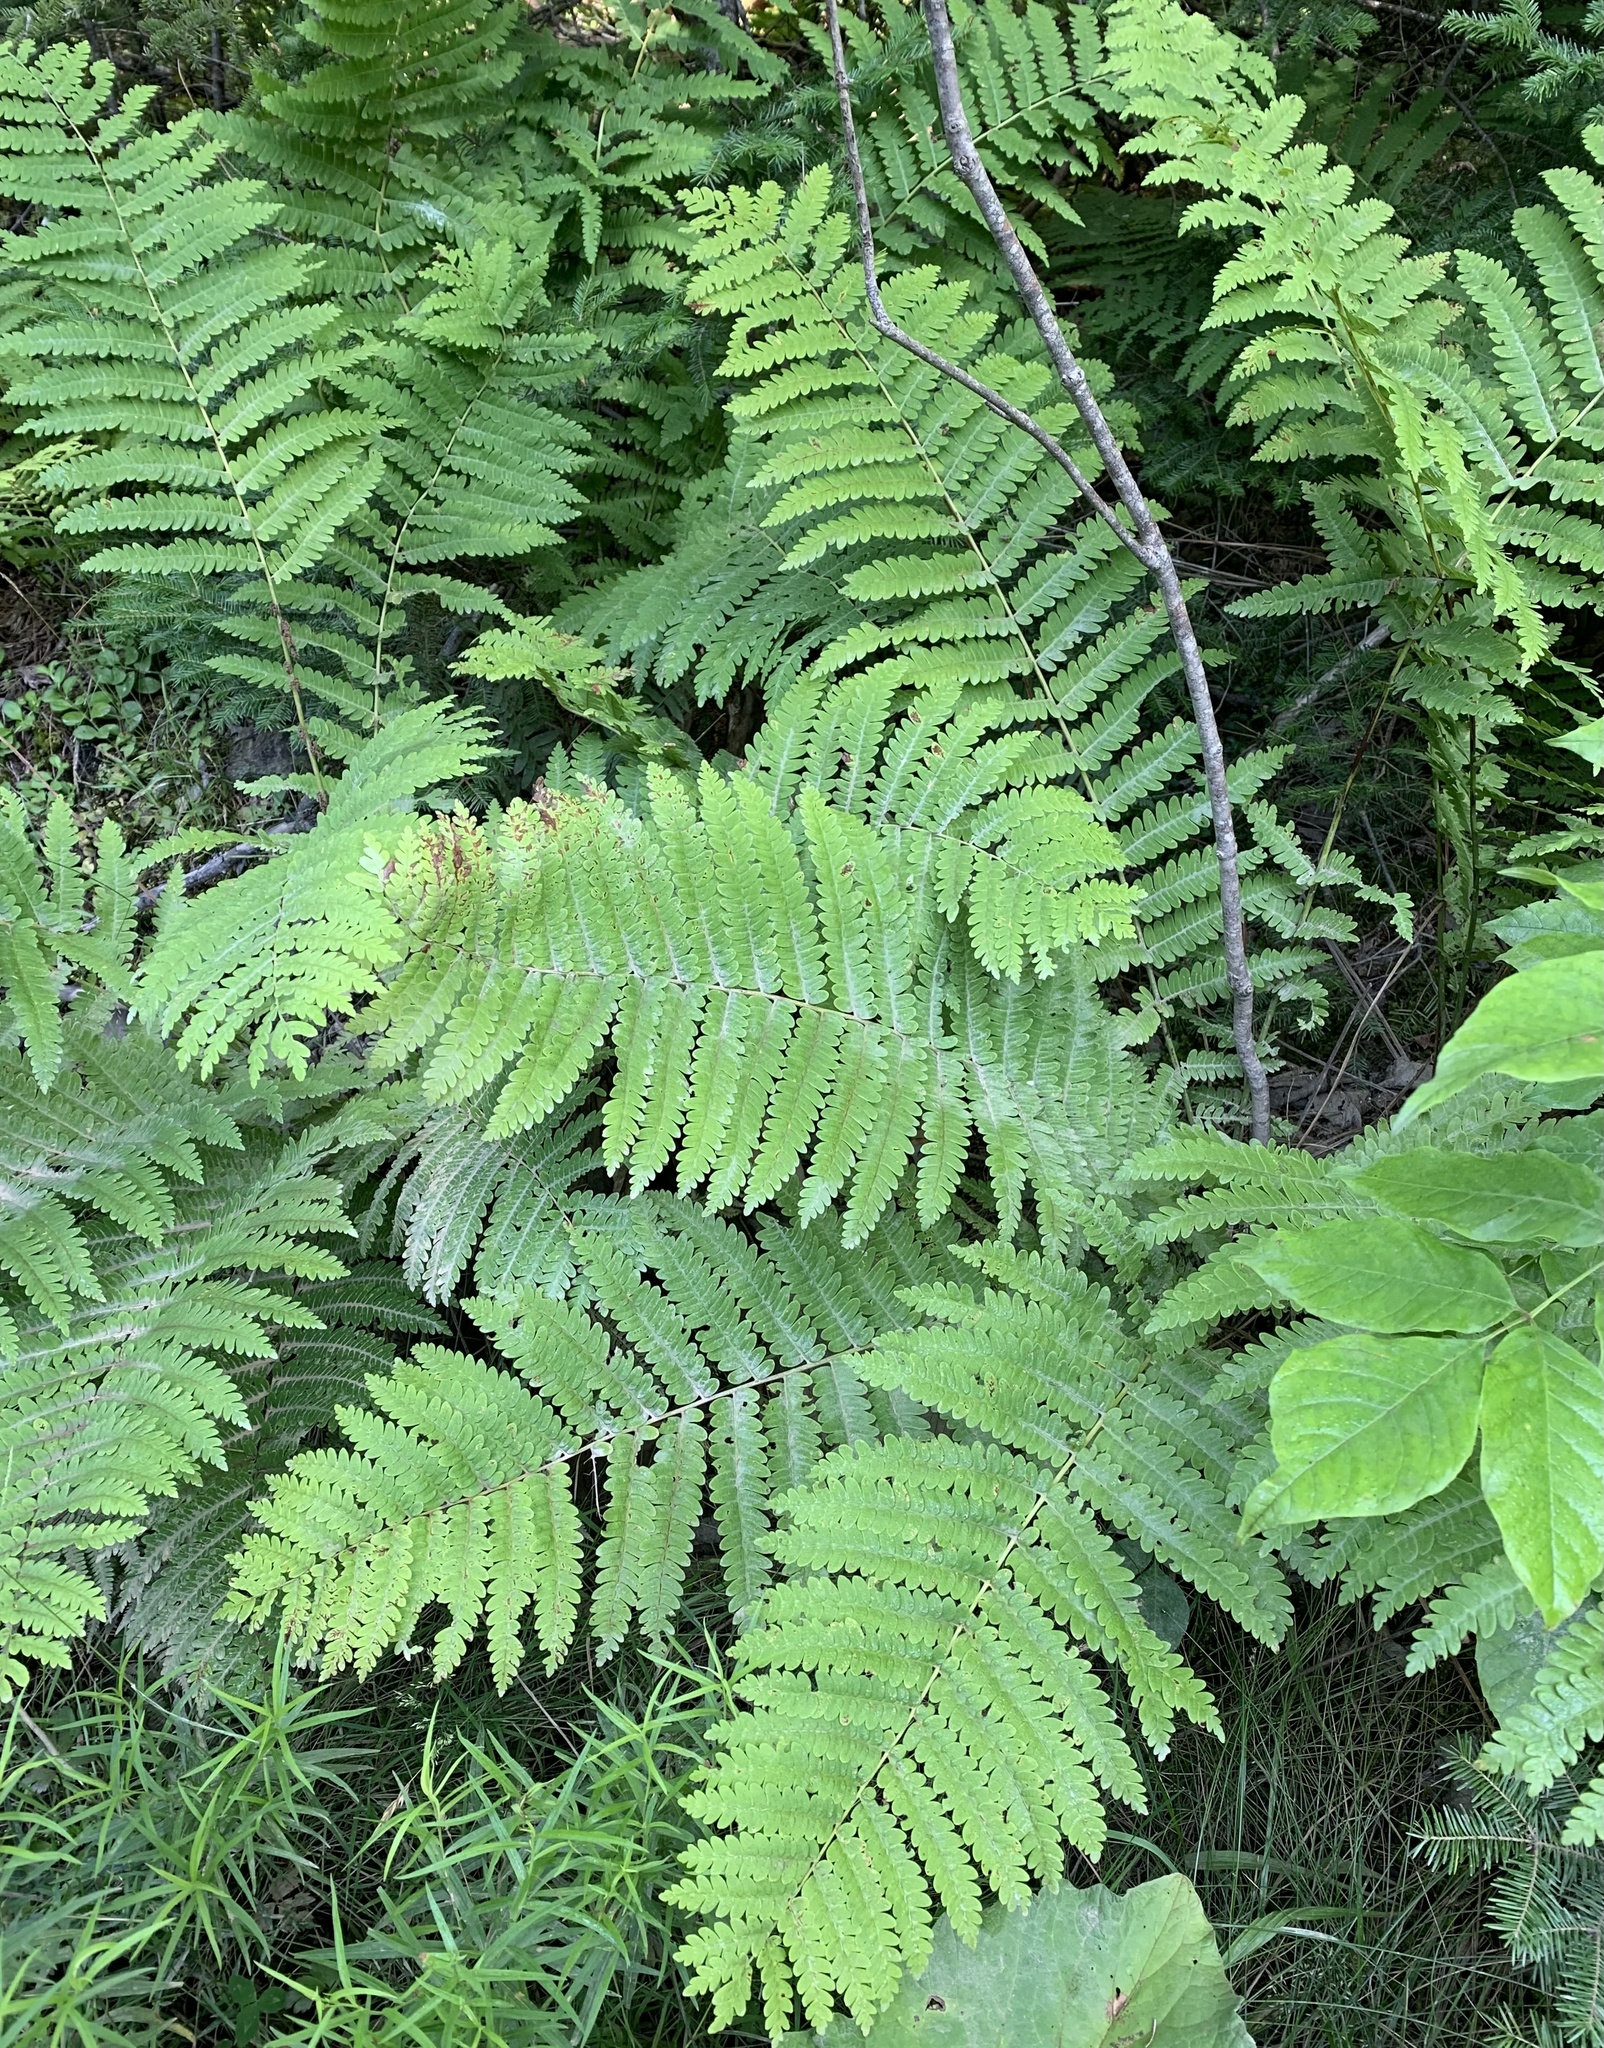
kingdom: Plantae
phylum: Tracheophyta
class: Polypodiopsida
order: Osmundales
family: Osmundaceae
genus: Claytosmunda
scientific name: Claytosmunda claytoniana
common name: Clayton's fern
